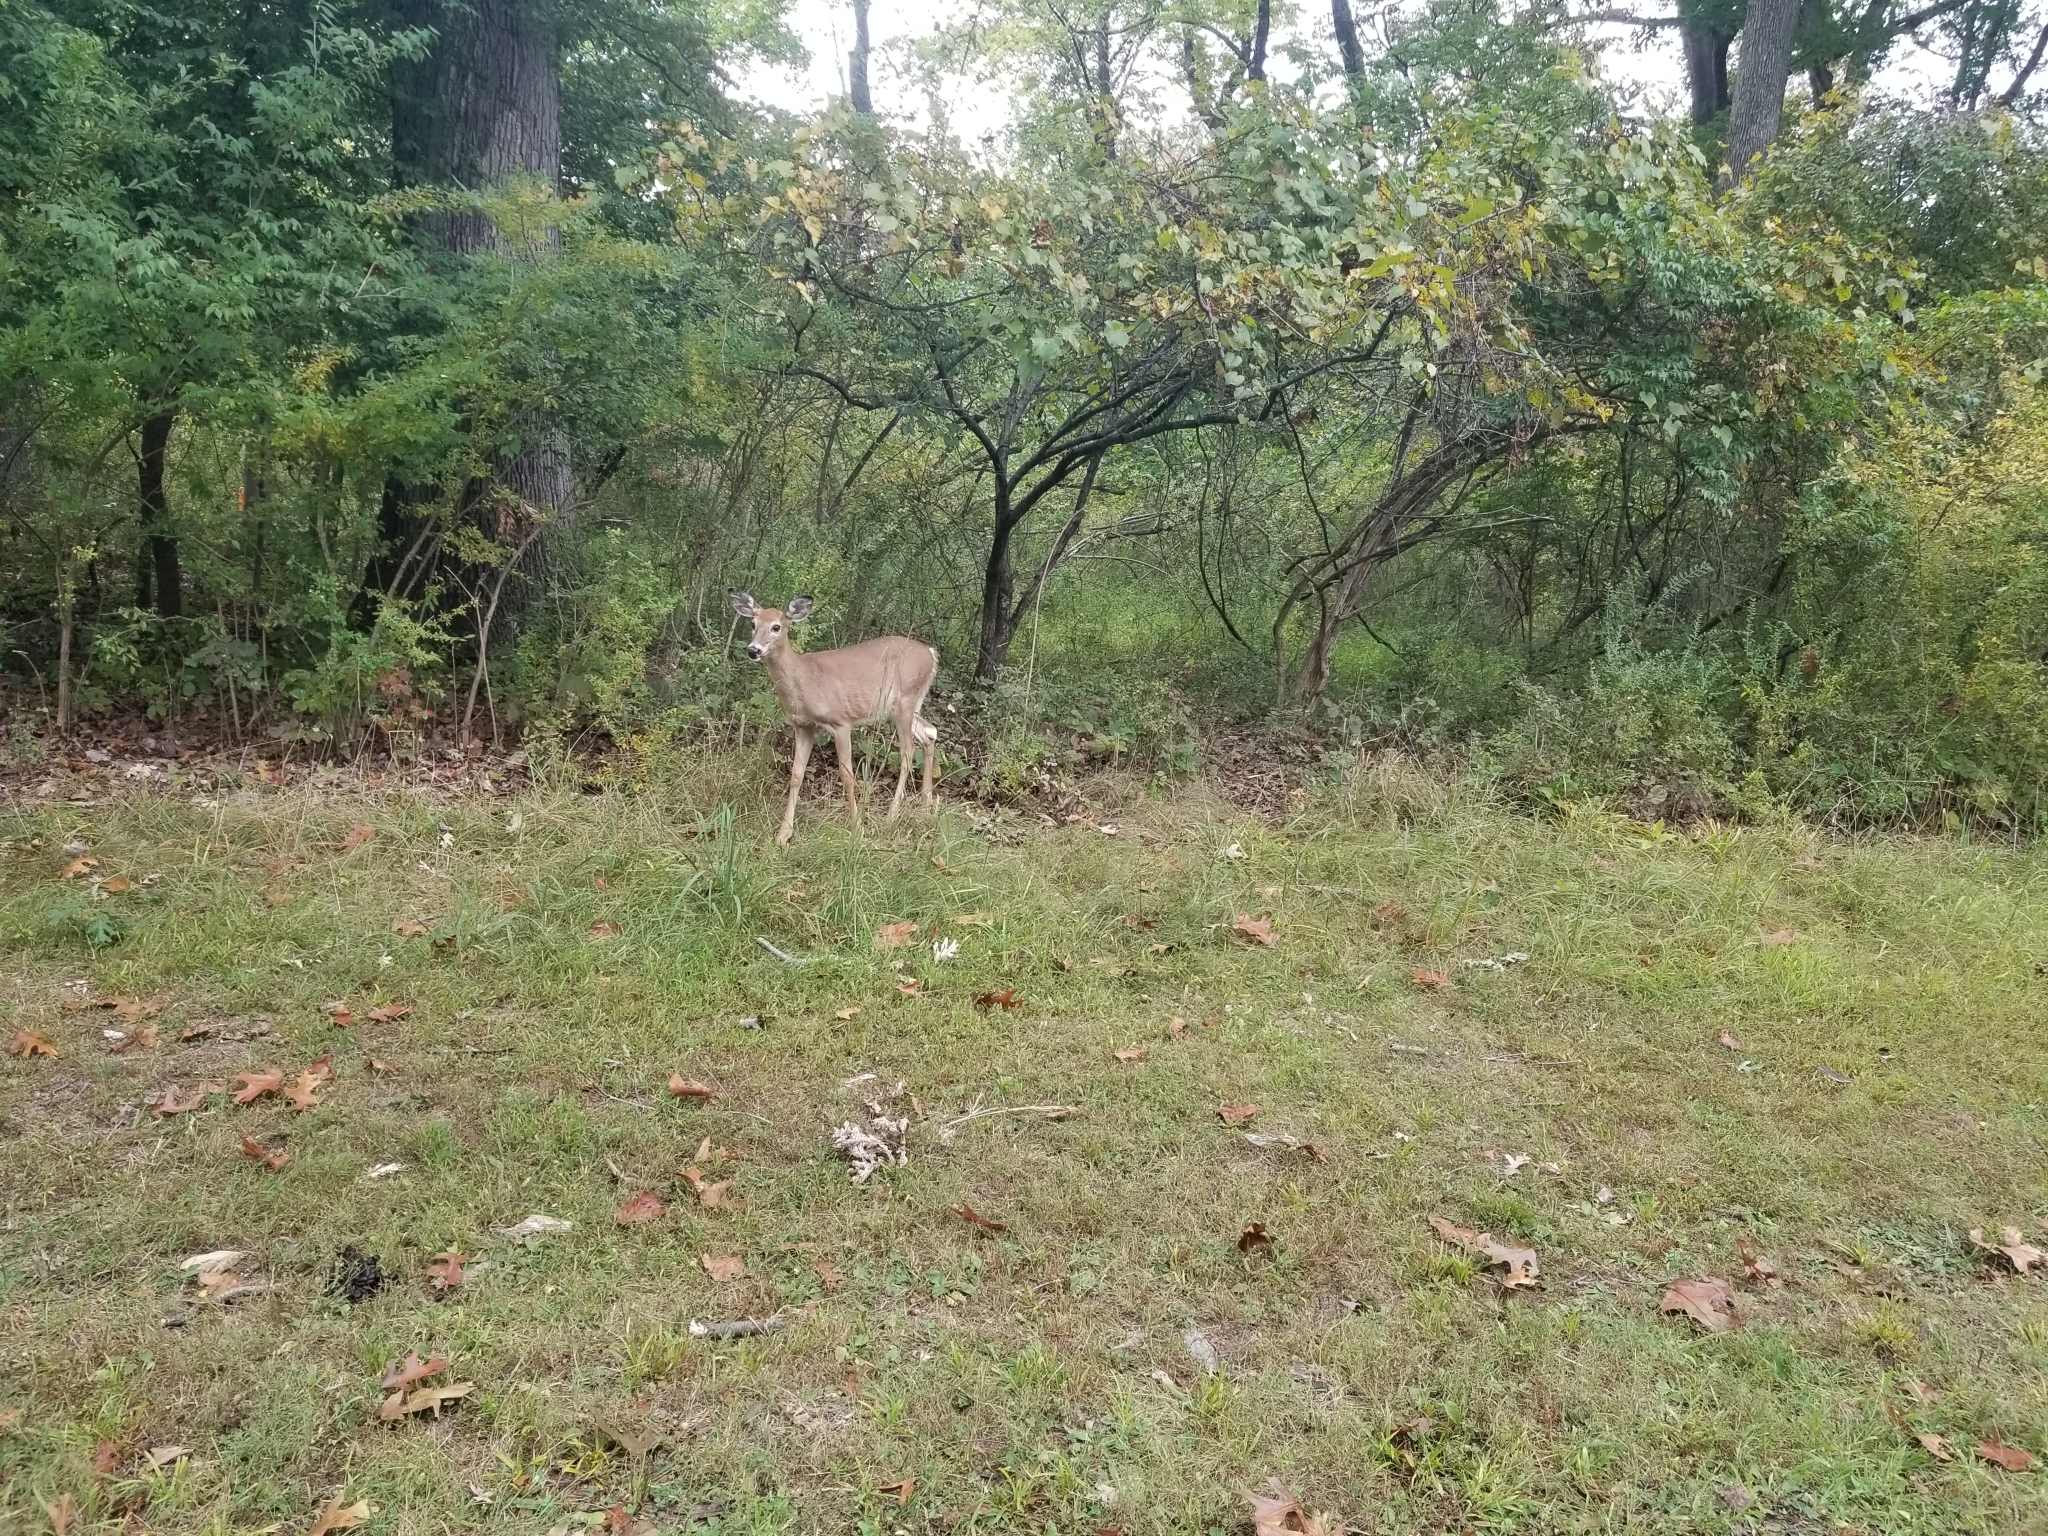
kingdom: Animalia
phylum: Chordata
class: Mammalia
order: Artiodactyla
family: Cervidae
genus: Odocoileus
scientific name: Odocoileus virginianus
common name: White-tailed deer
